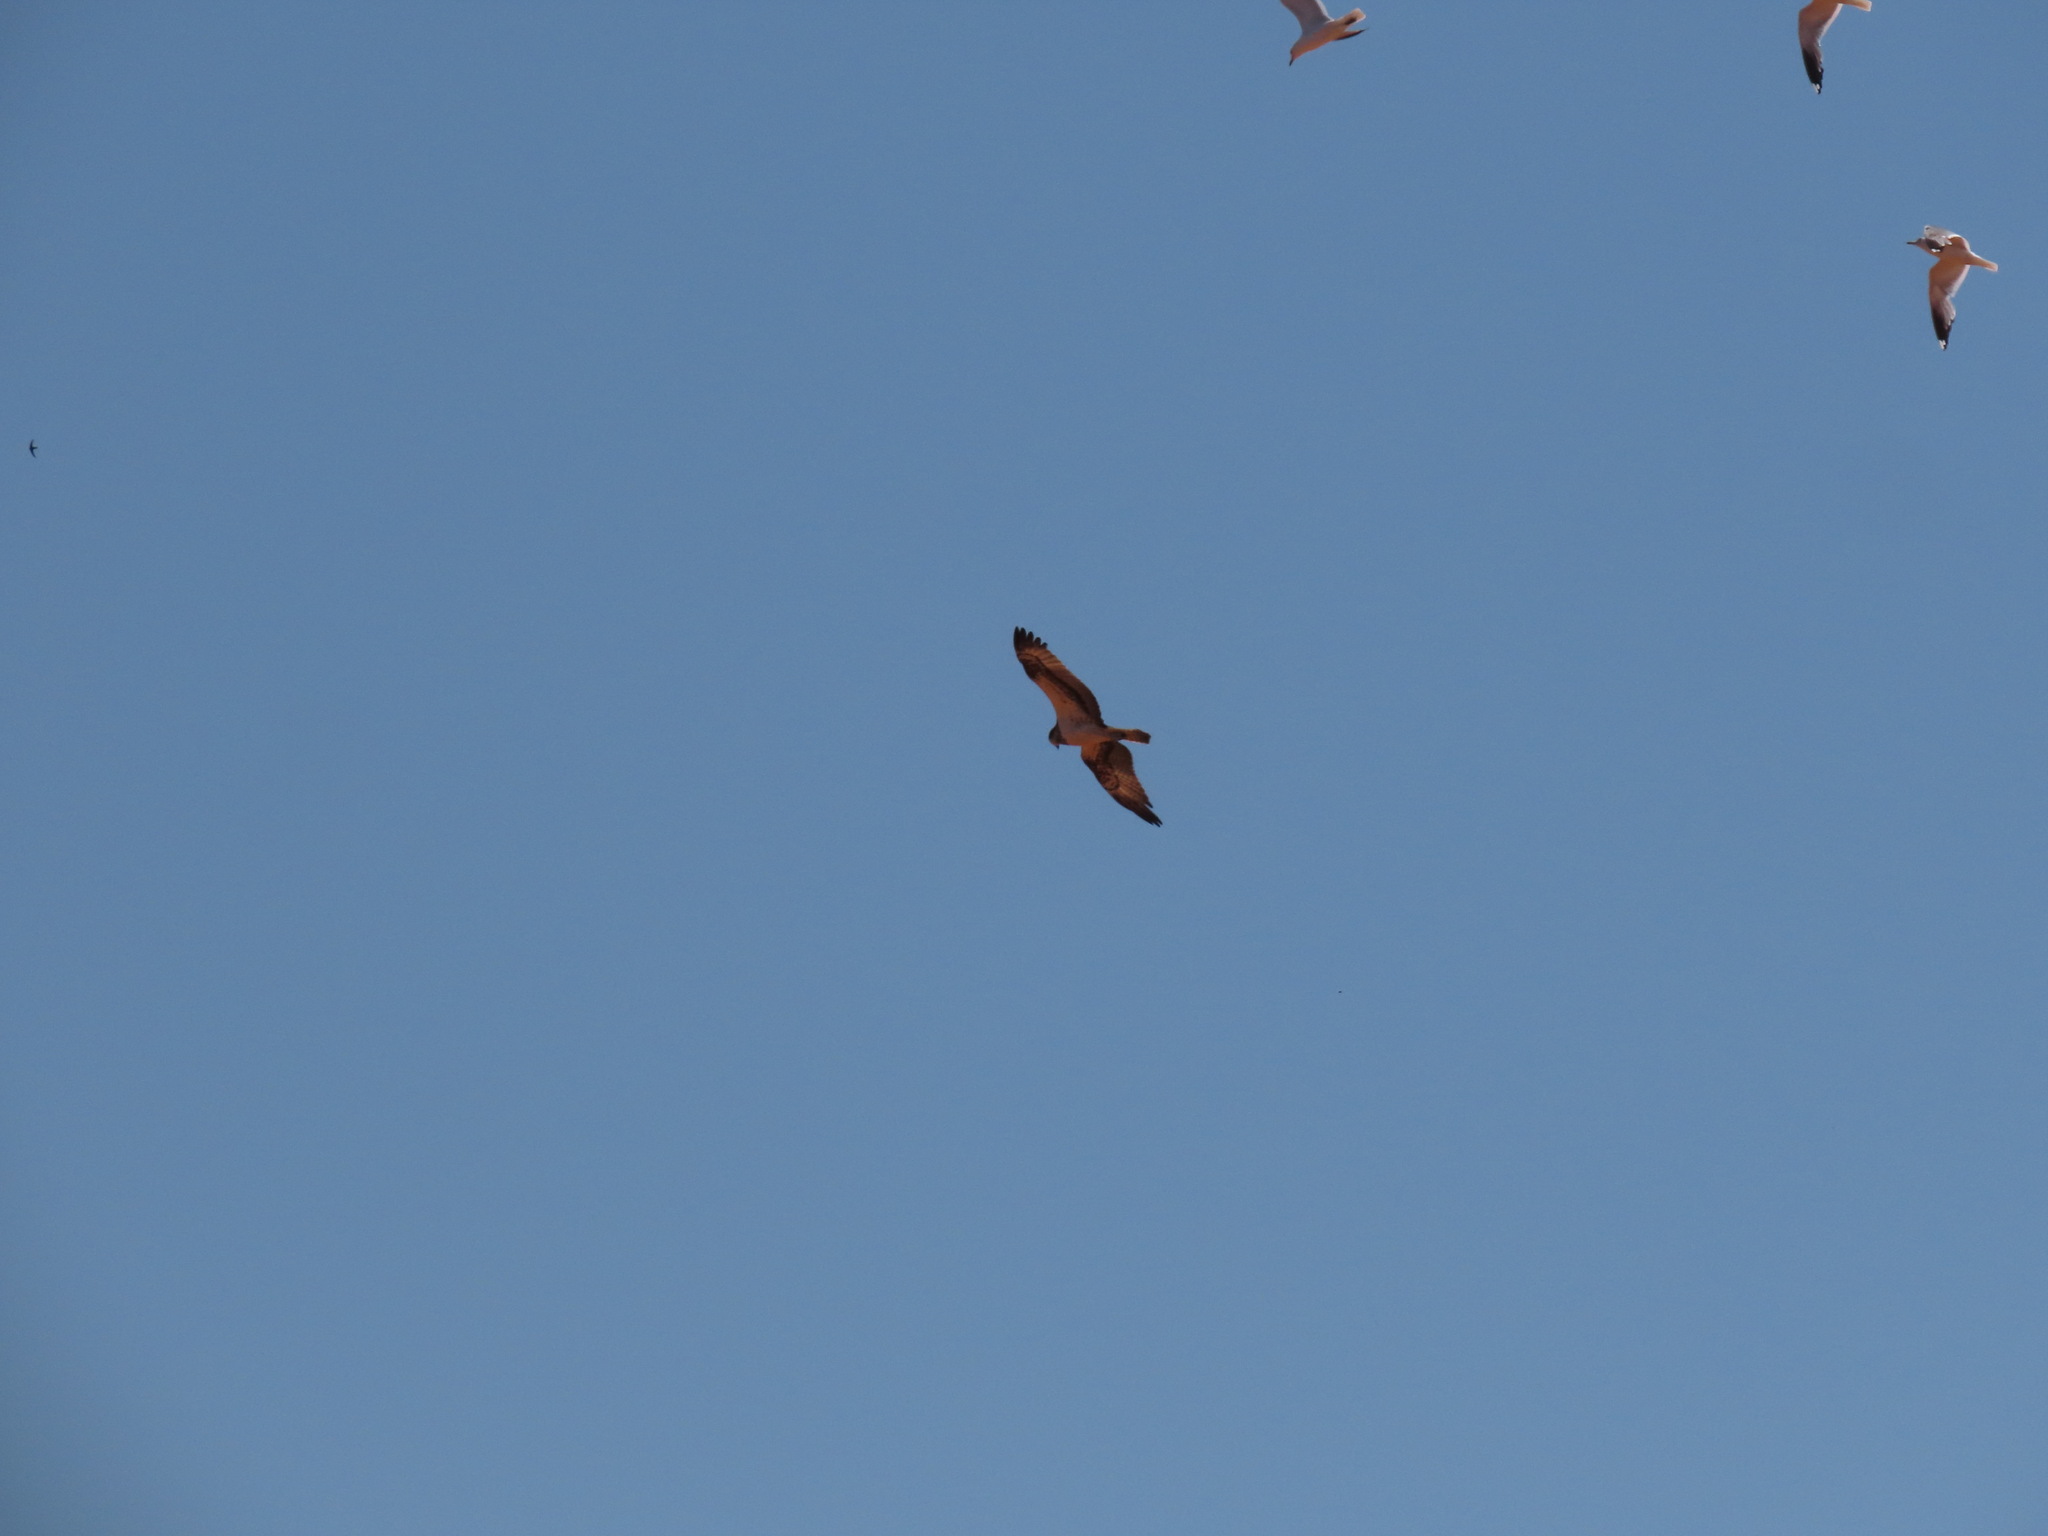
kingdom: Animalia
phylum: Chordata
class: Aves
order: Accipitriformes
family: Pandionidae
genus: Pandion
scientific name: Pandion haliaetus
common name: Osprey
